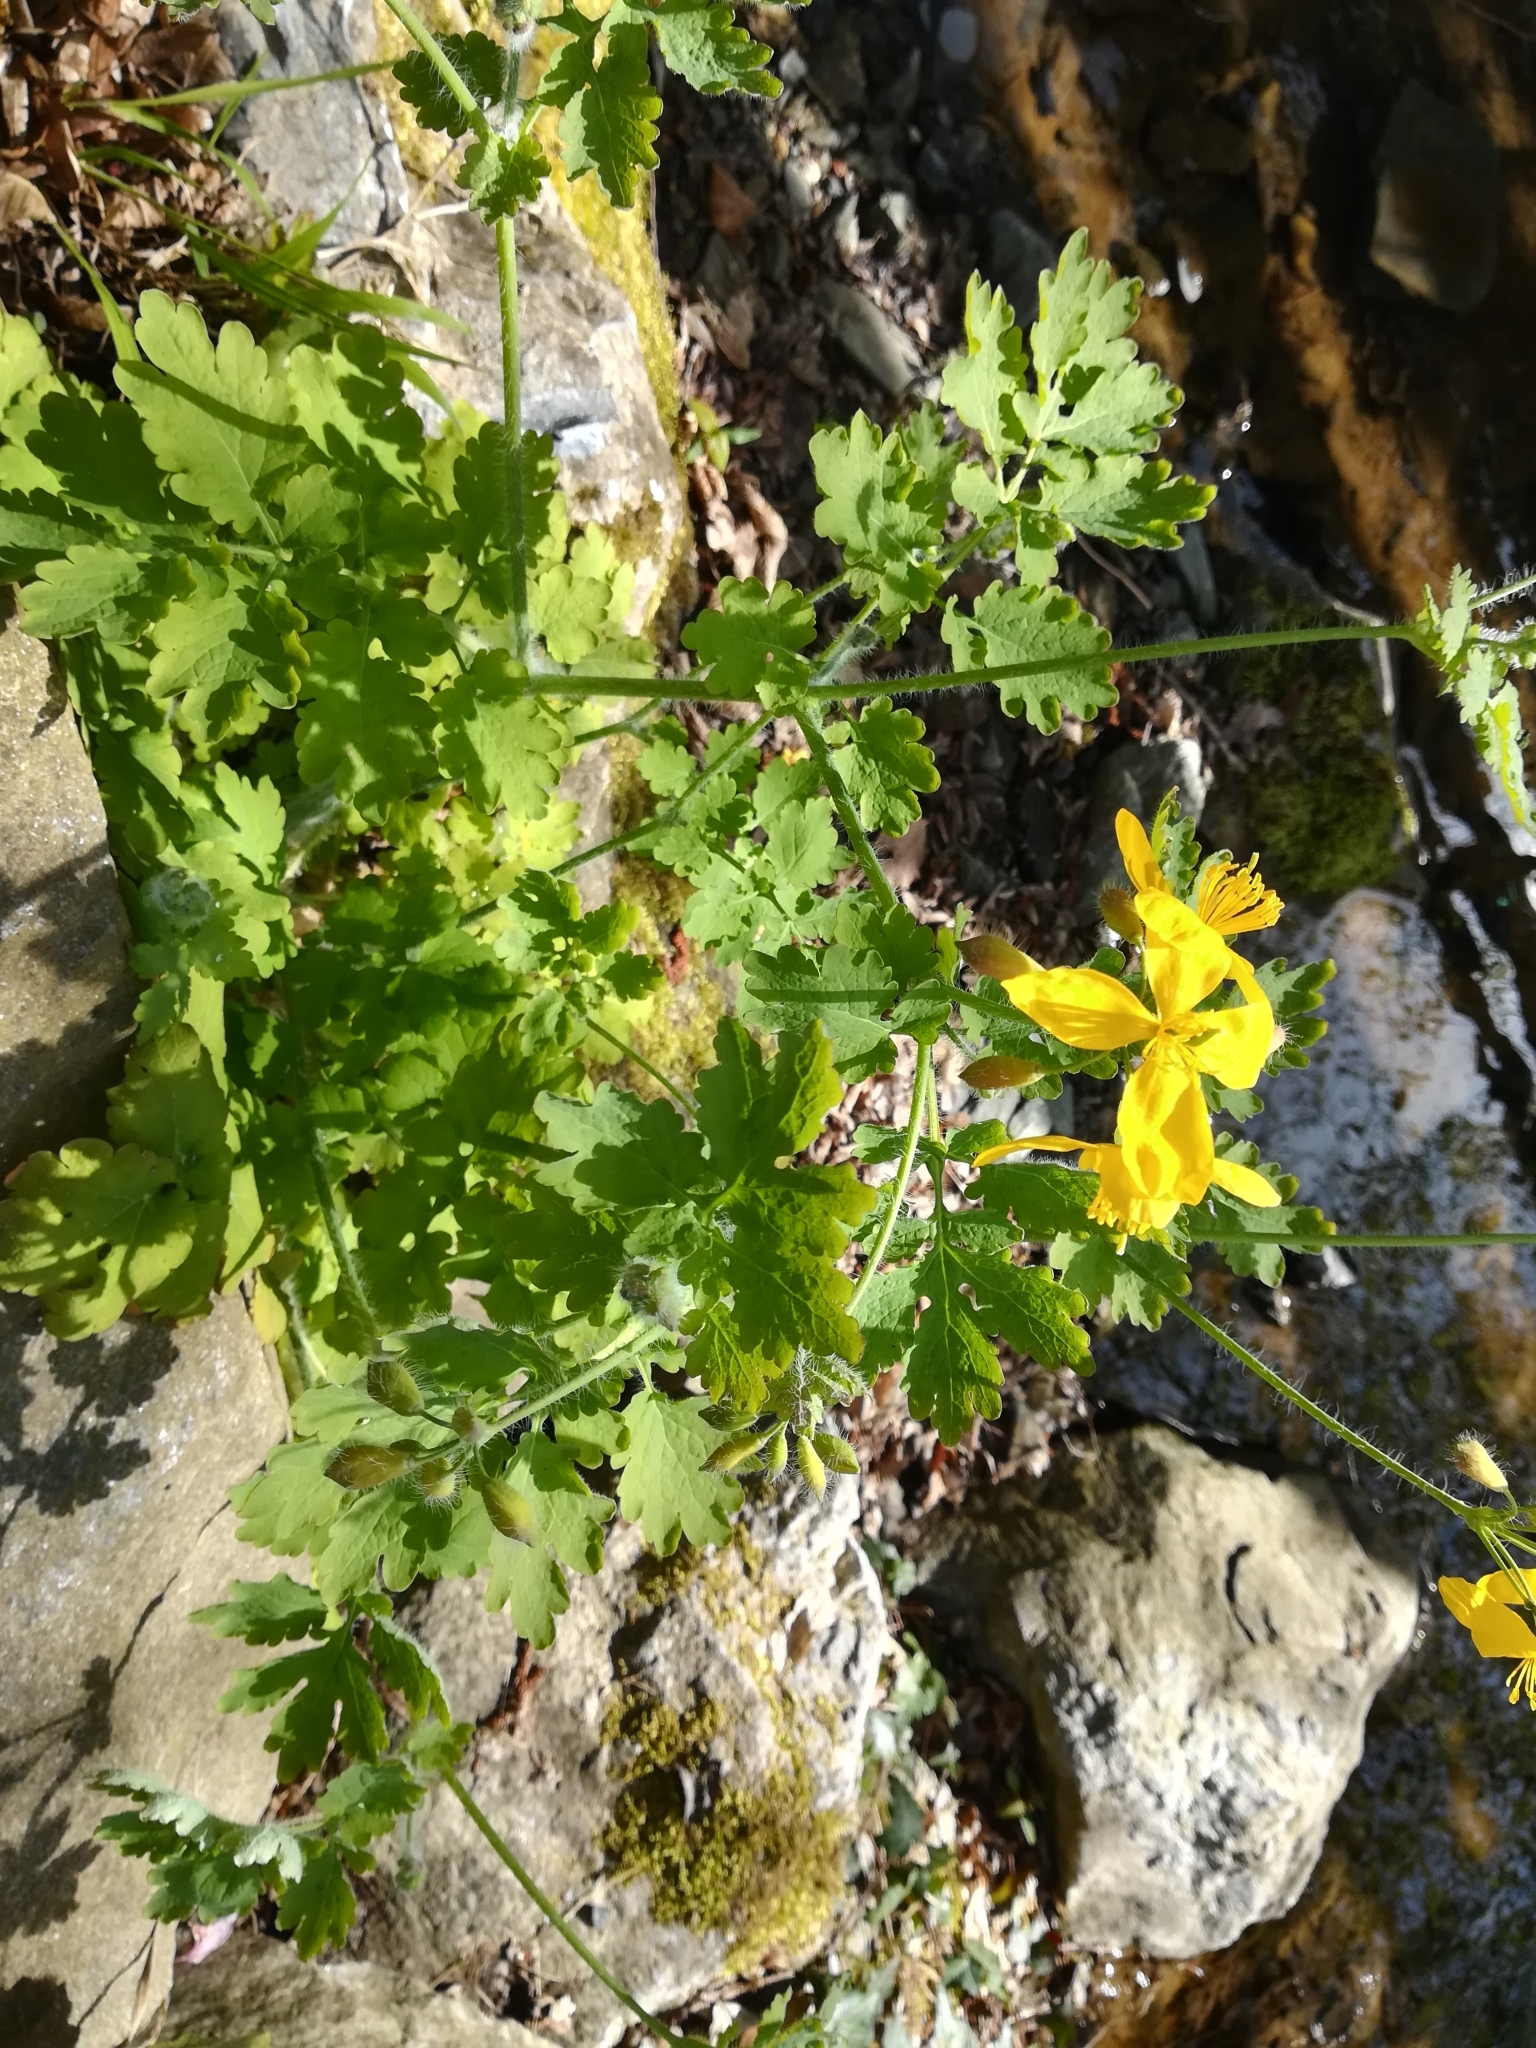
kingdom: Plantae
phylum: Tracheophyta
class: Magnoliopsida
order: Ranunculales
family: Papaveraceae
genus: Chelidonium
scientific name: Chelidonium majus
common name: Greater celandine
